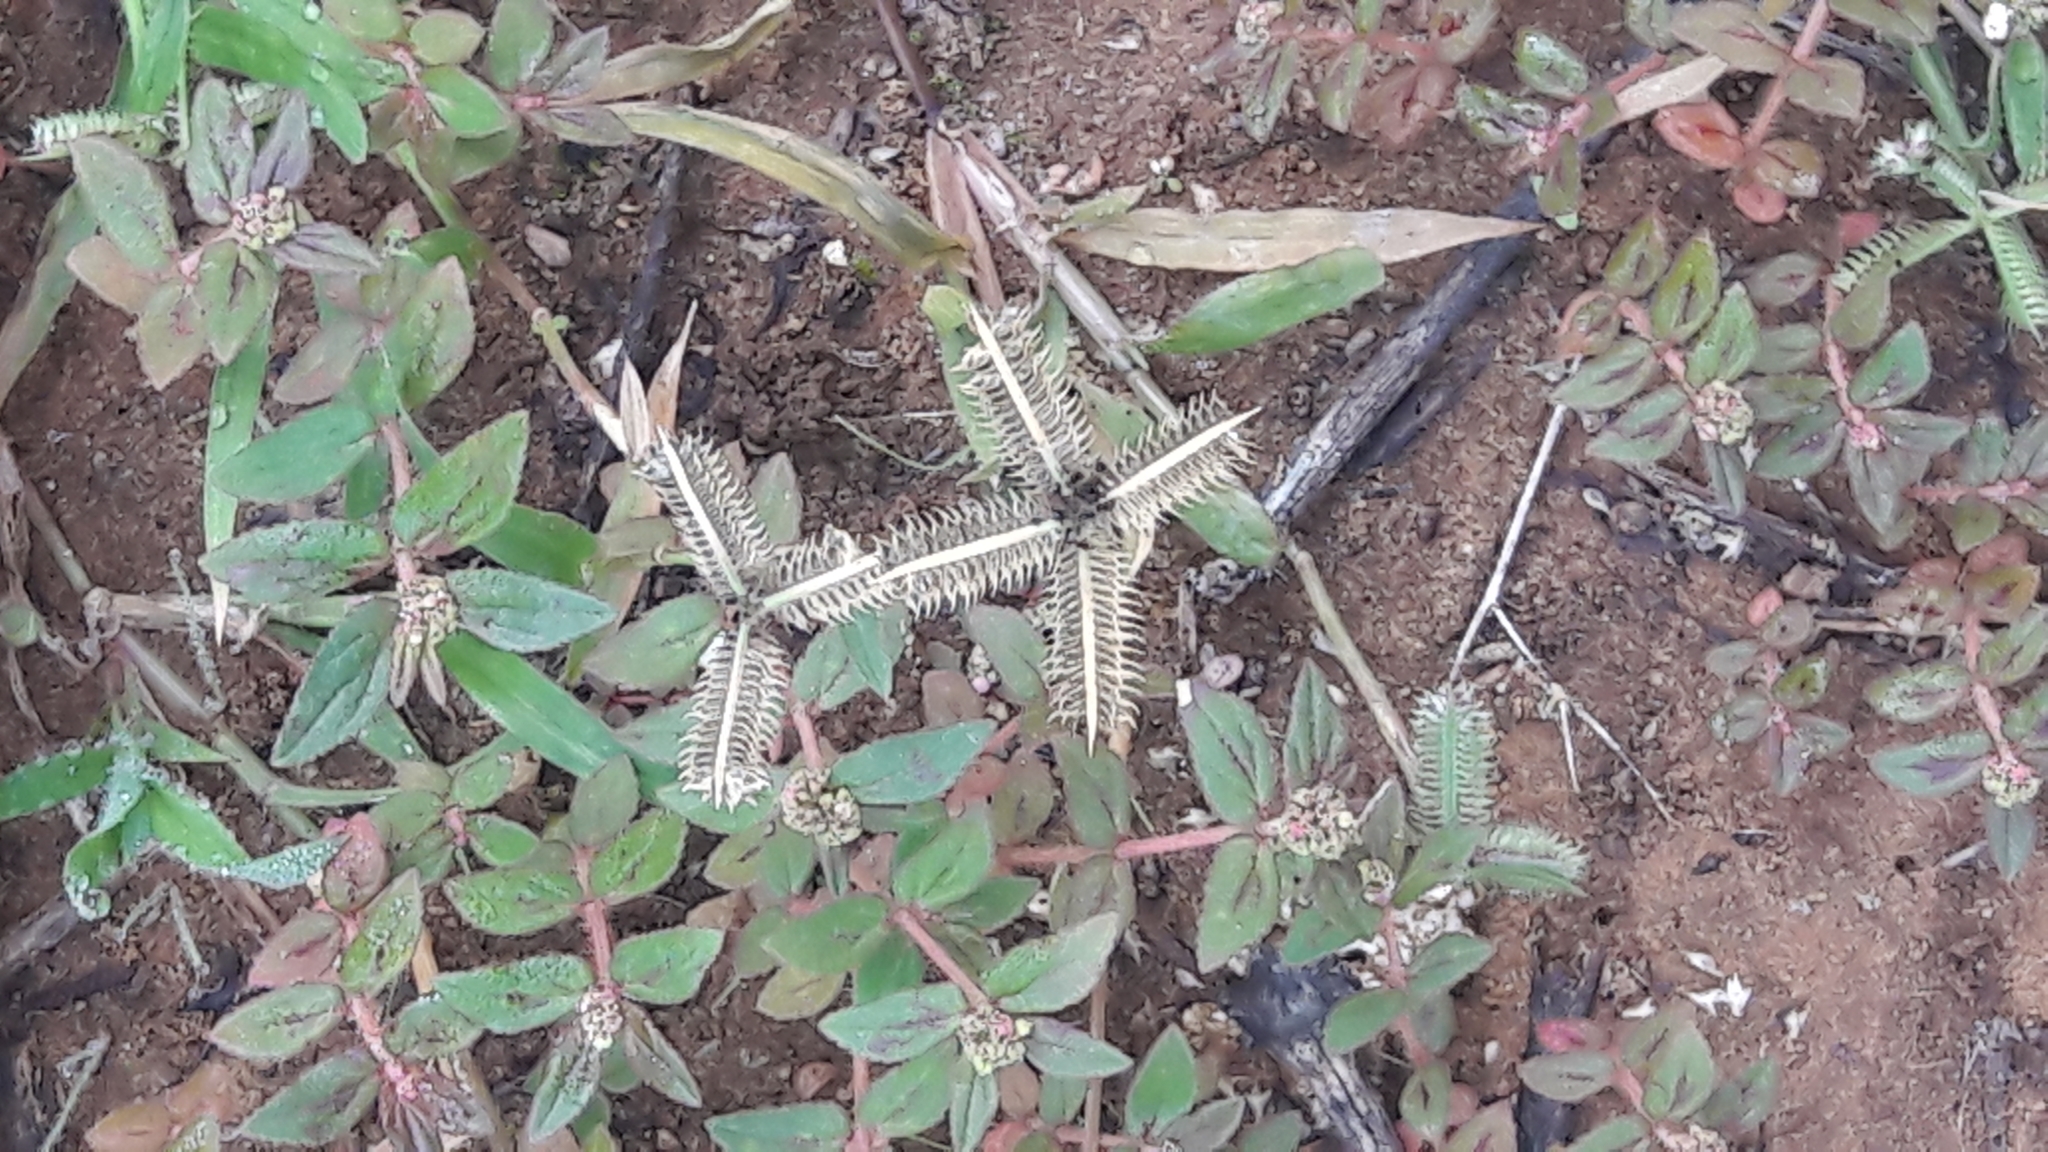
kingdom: Plantae
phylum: Tracheophyta
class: Liliopsida
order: Poales
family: Poaceae
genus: Dactyloctenium
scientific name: Dactyloctenium aegyptium
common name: Egyptian grass
